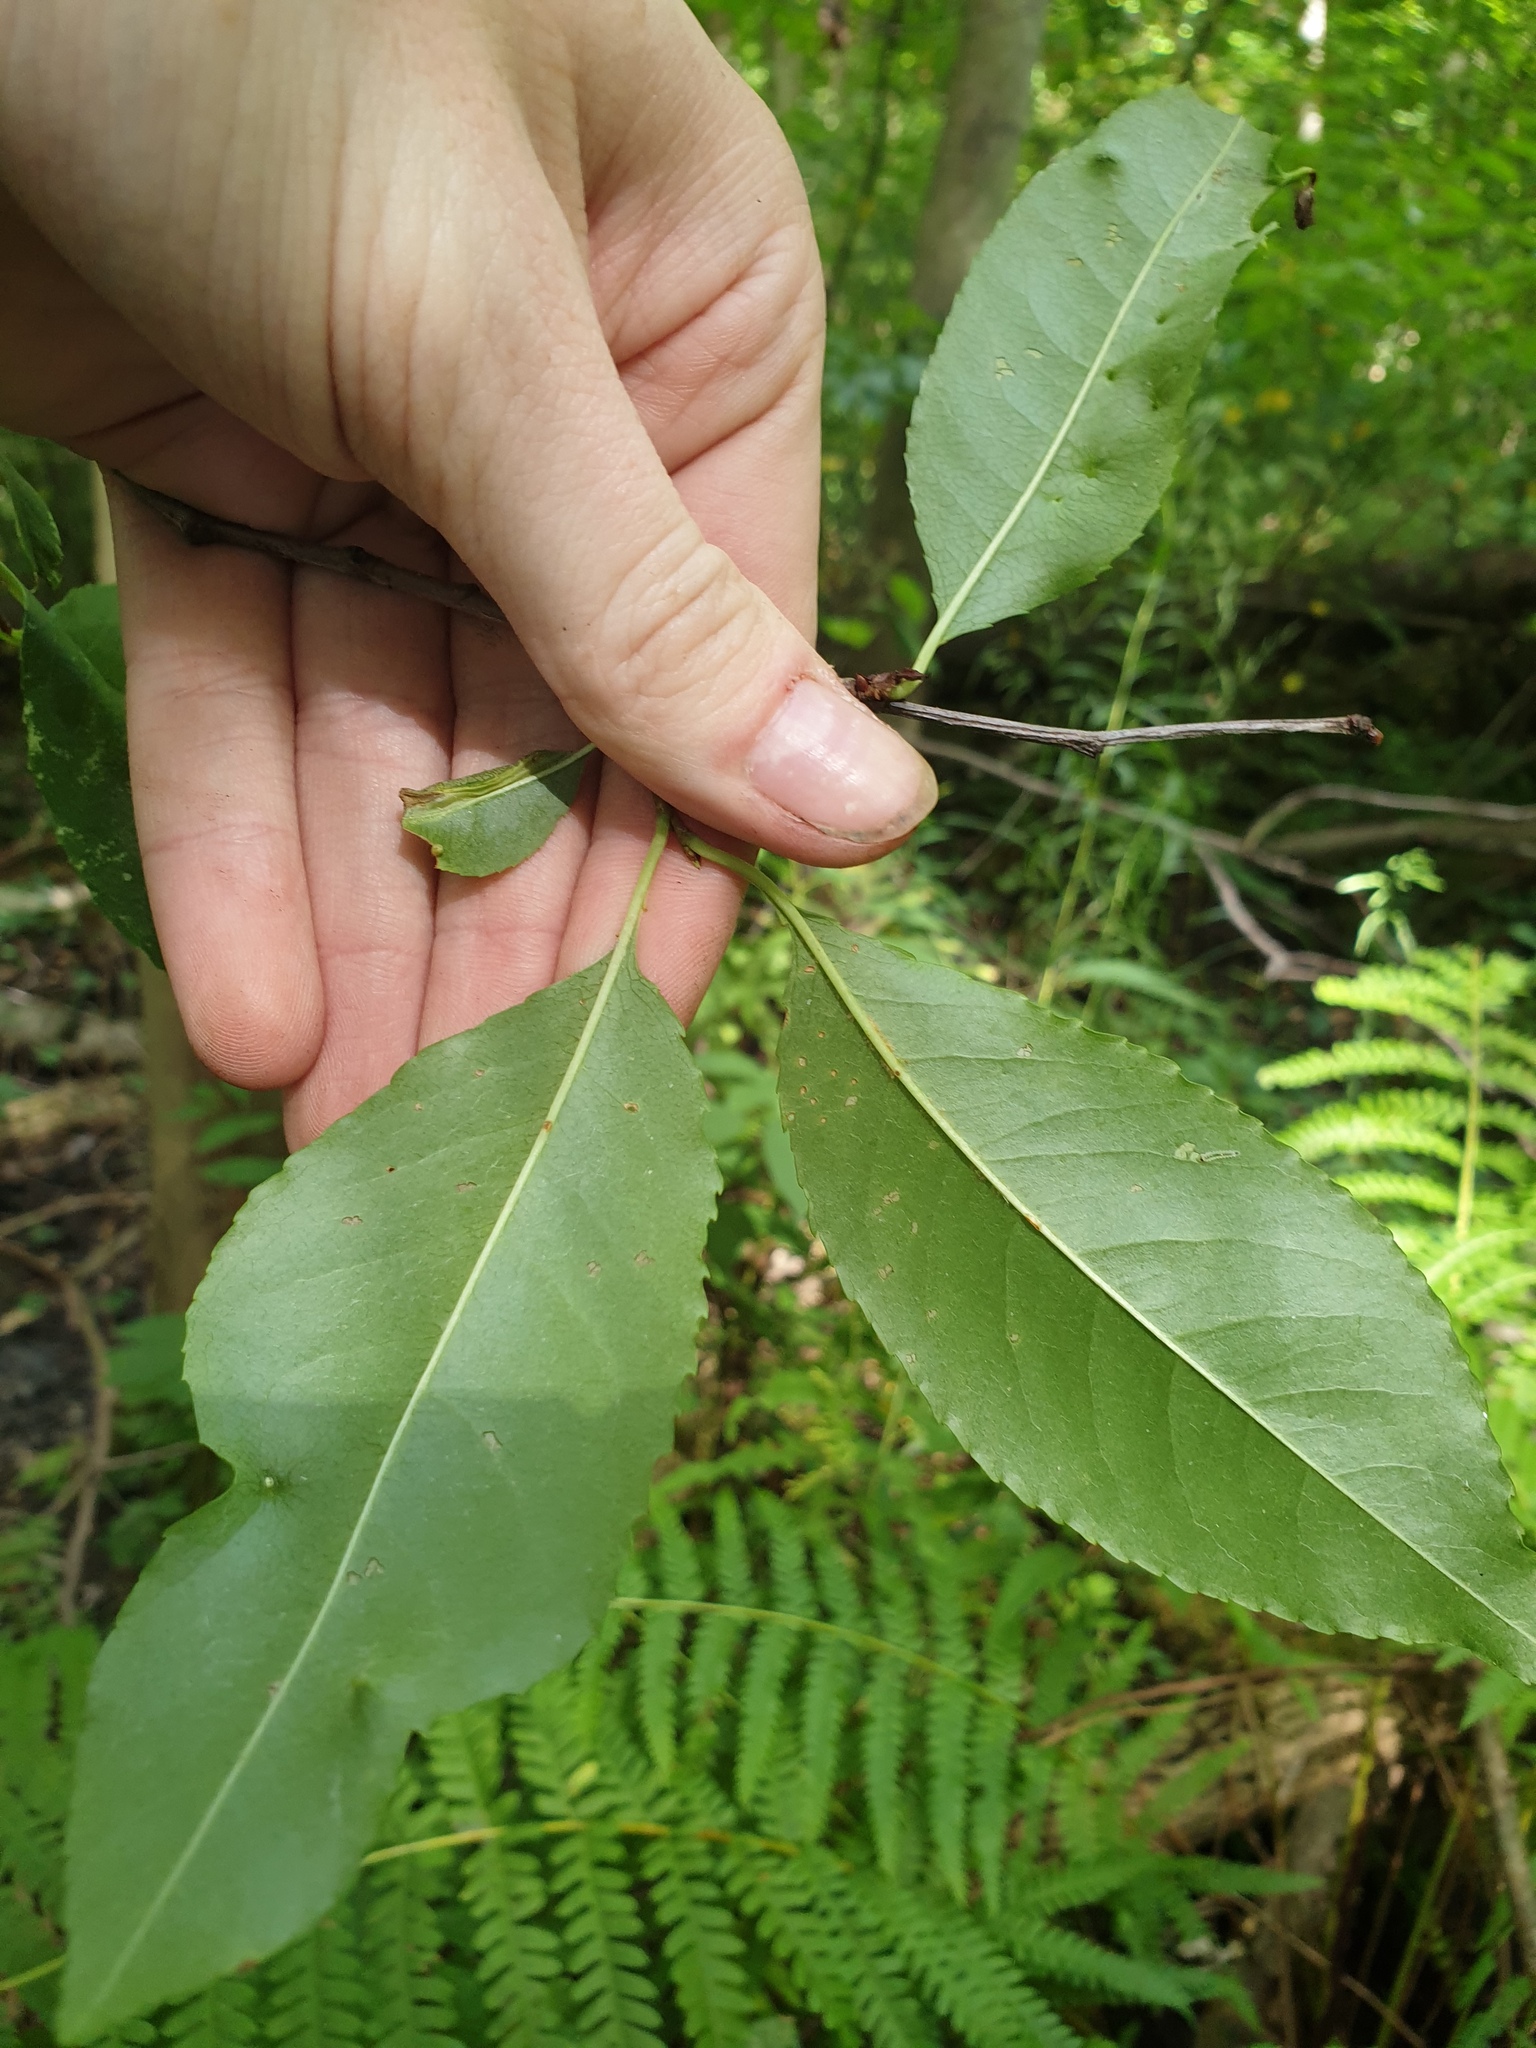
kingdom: Plantae
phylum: Tracheophyta
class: Magnoliopsida
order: Rosales
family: Rosaceae
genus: Prunus
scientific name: Prunus serotina
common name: Black cherry
